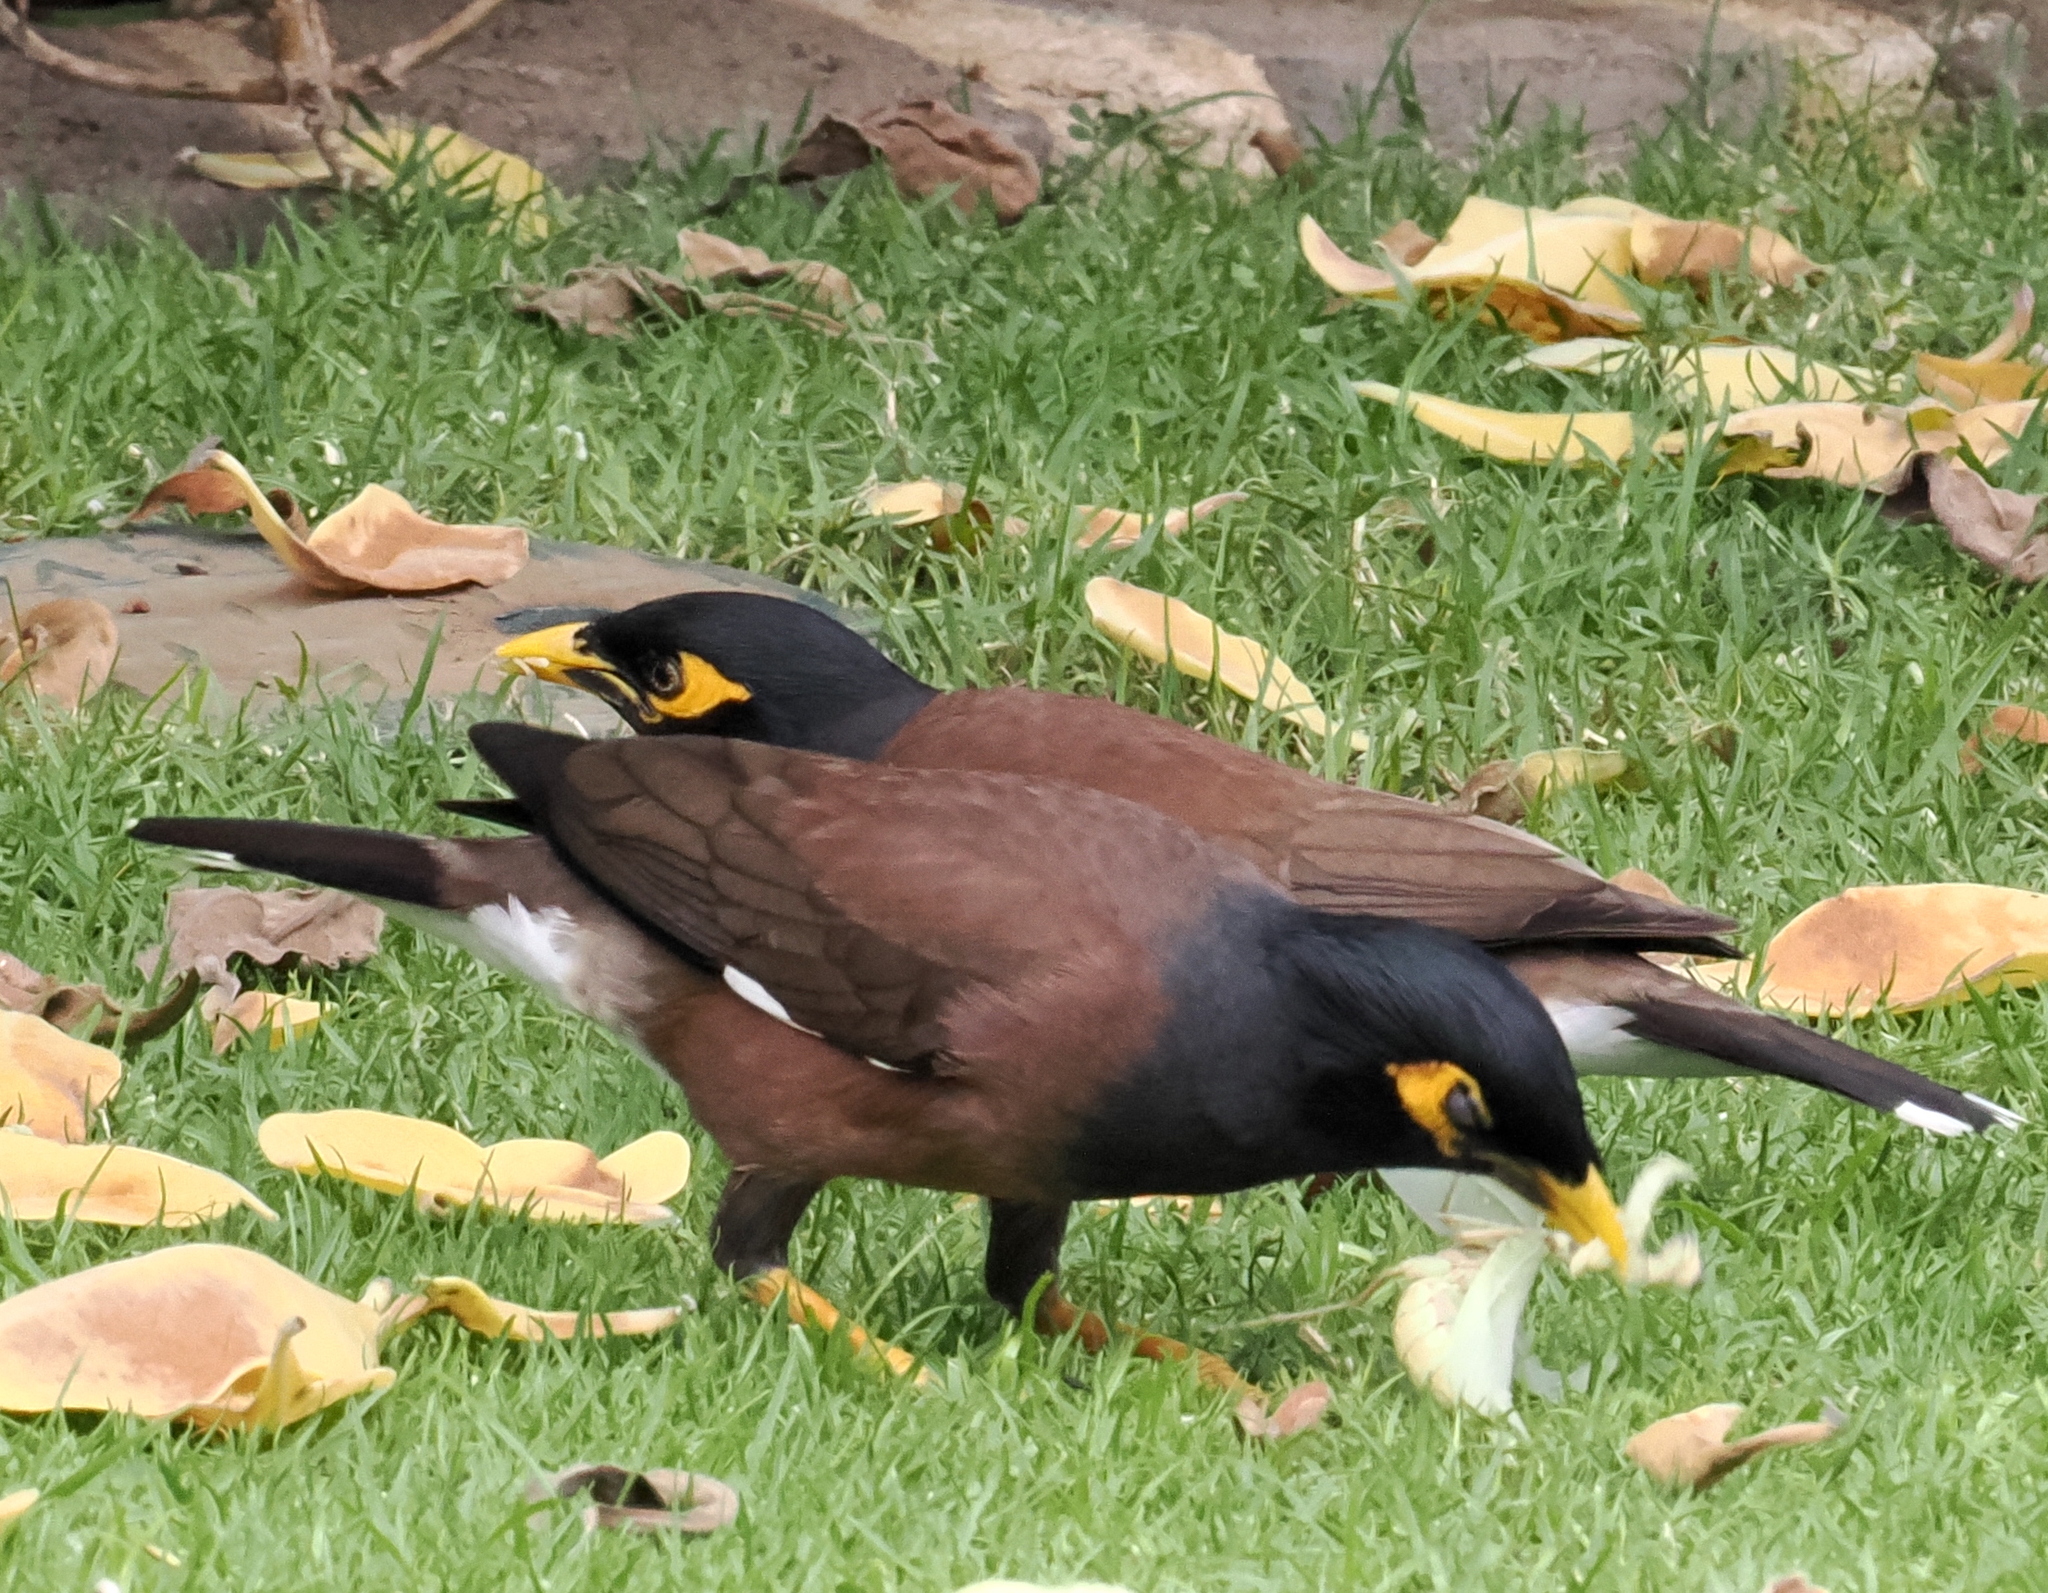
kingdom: Animalia
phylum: Chordata
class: Aves
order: Passeriformes
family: Sturnidae
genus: Acridotheres
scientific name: Acridotheres tristis
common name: Common myna
